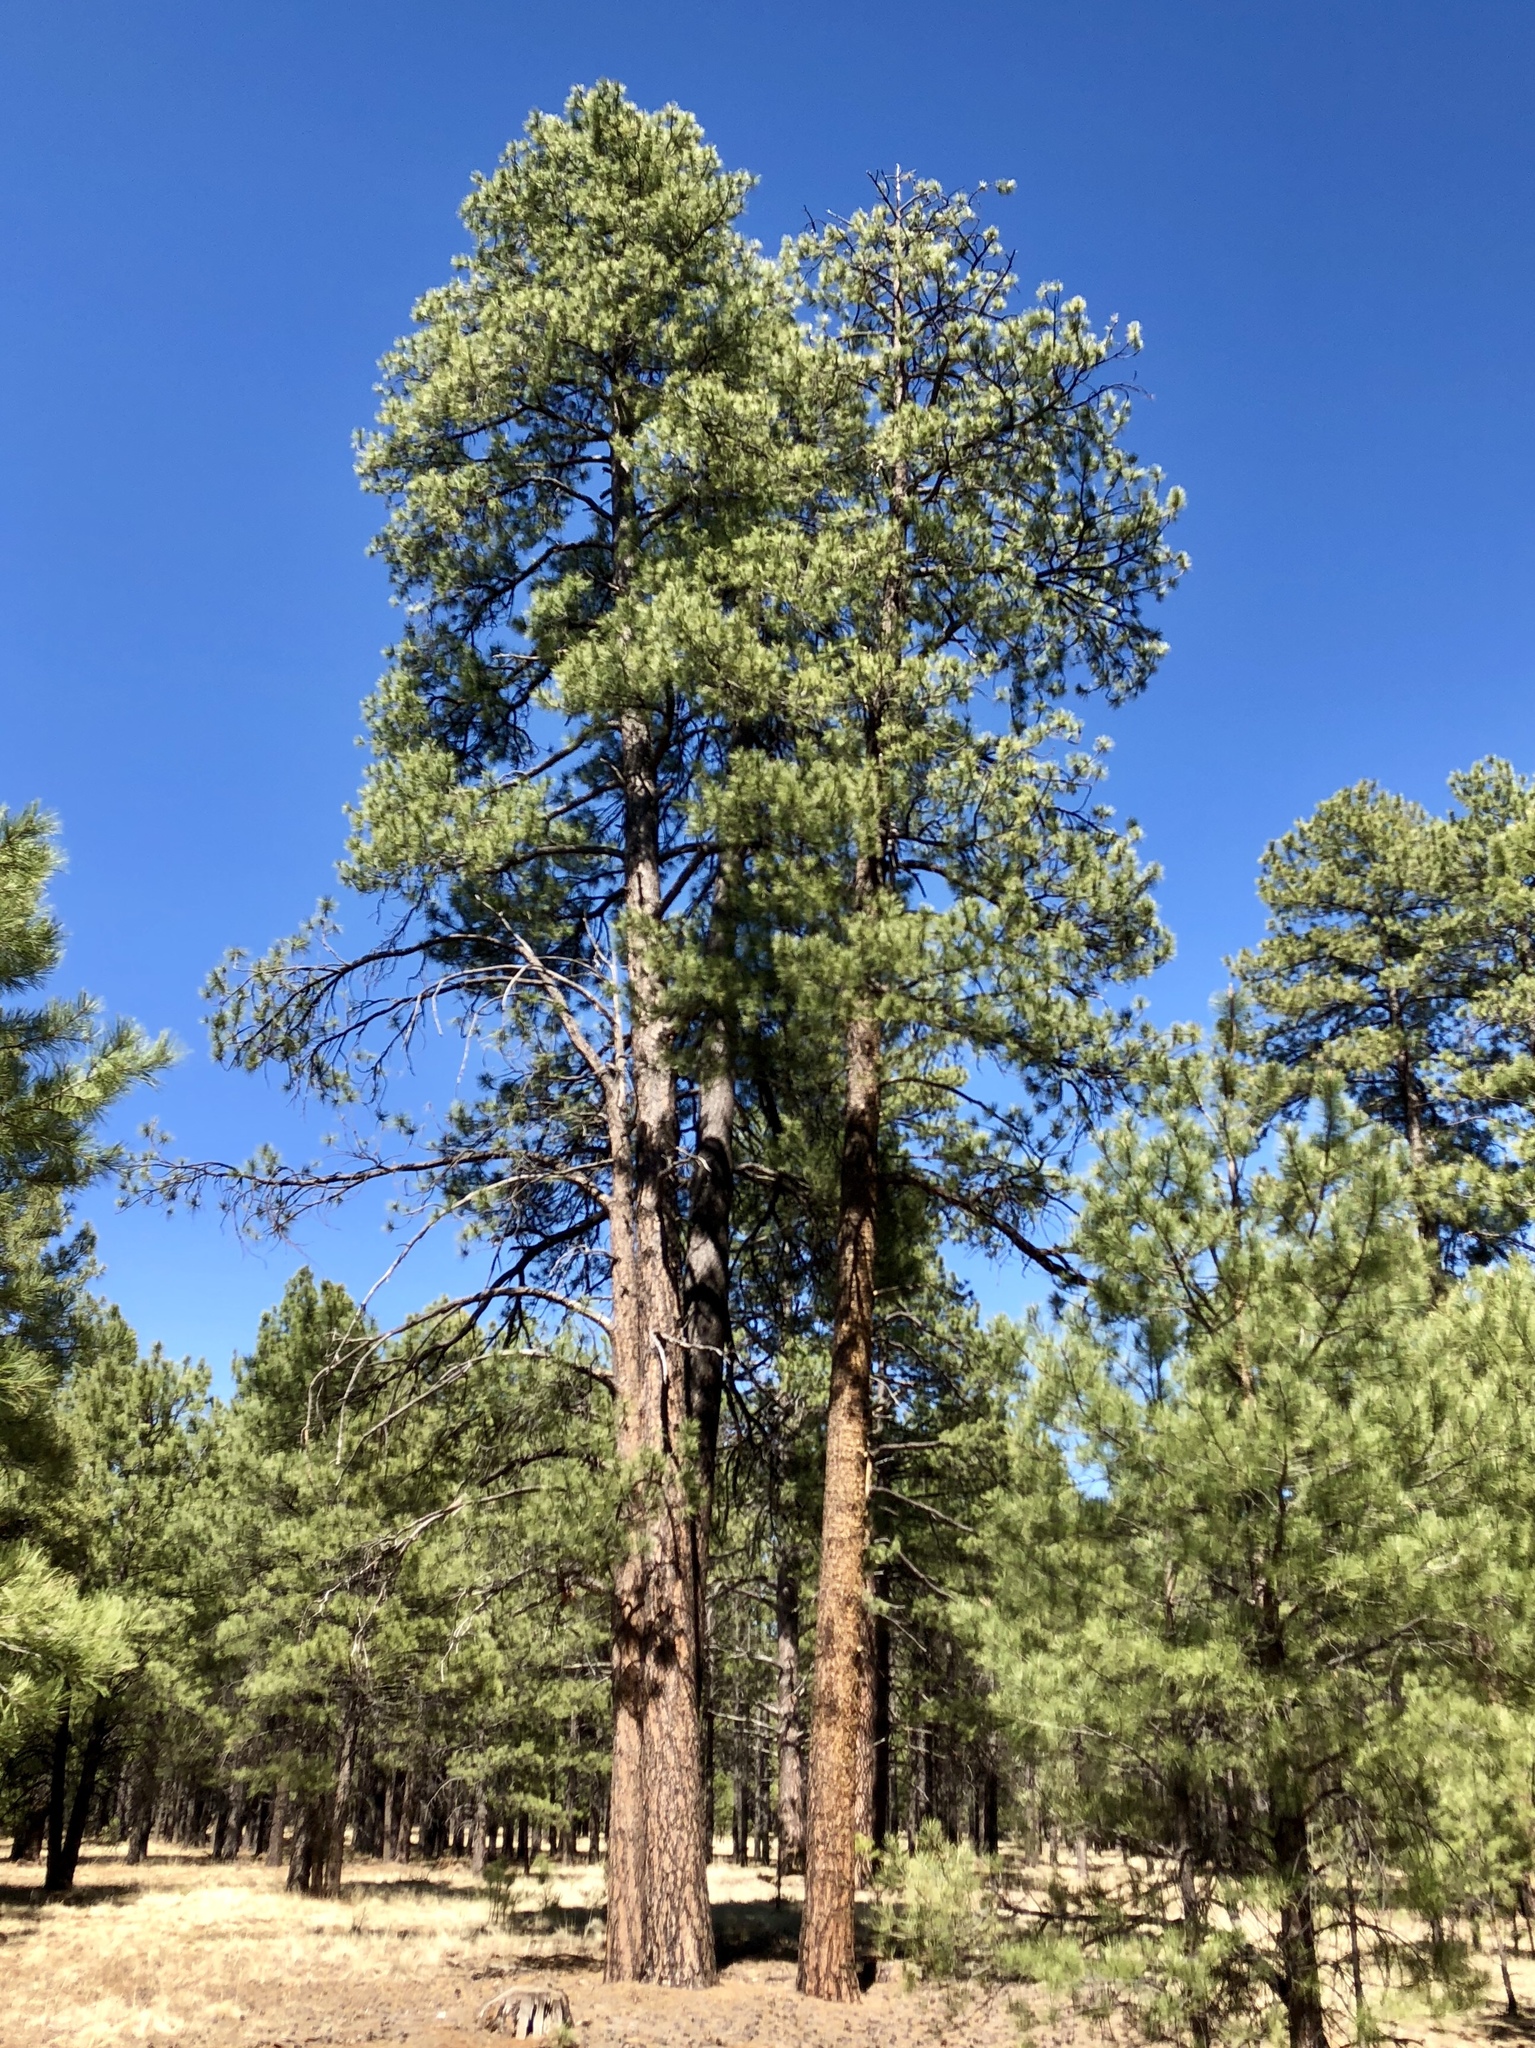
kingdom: Plantae
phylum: Tracheophyta
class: Pinopsida
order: Pinales
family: Pinaceae
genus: Pinus
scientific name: Pinus ponderosa
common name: Western yellow-pine
